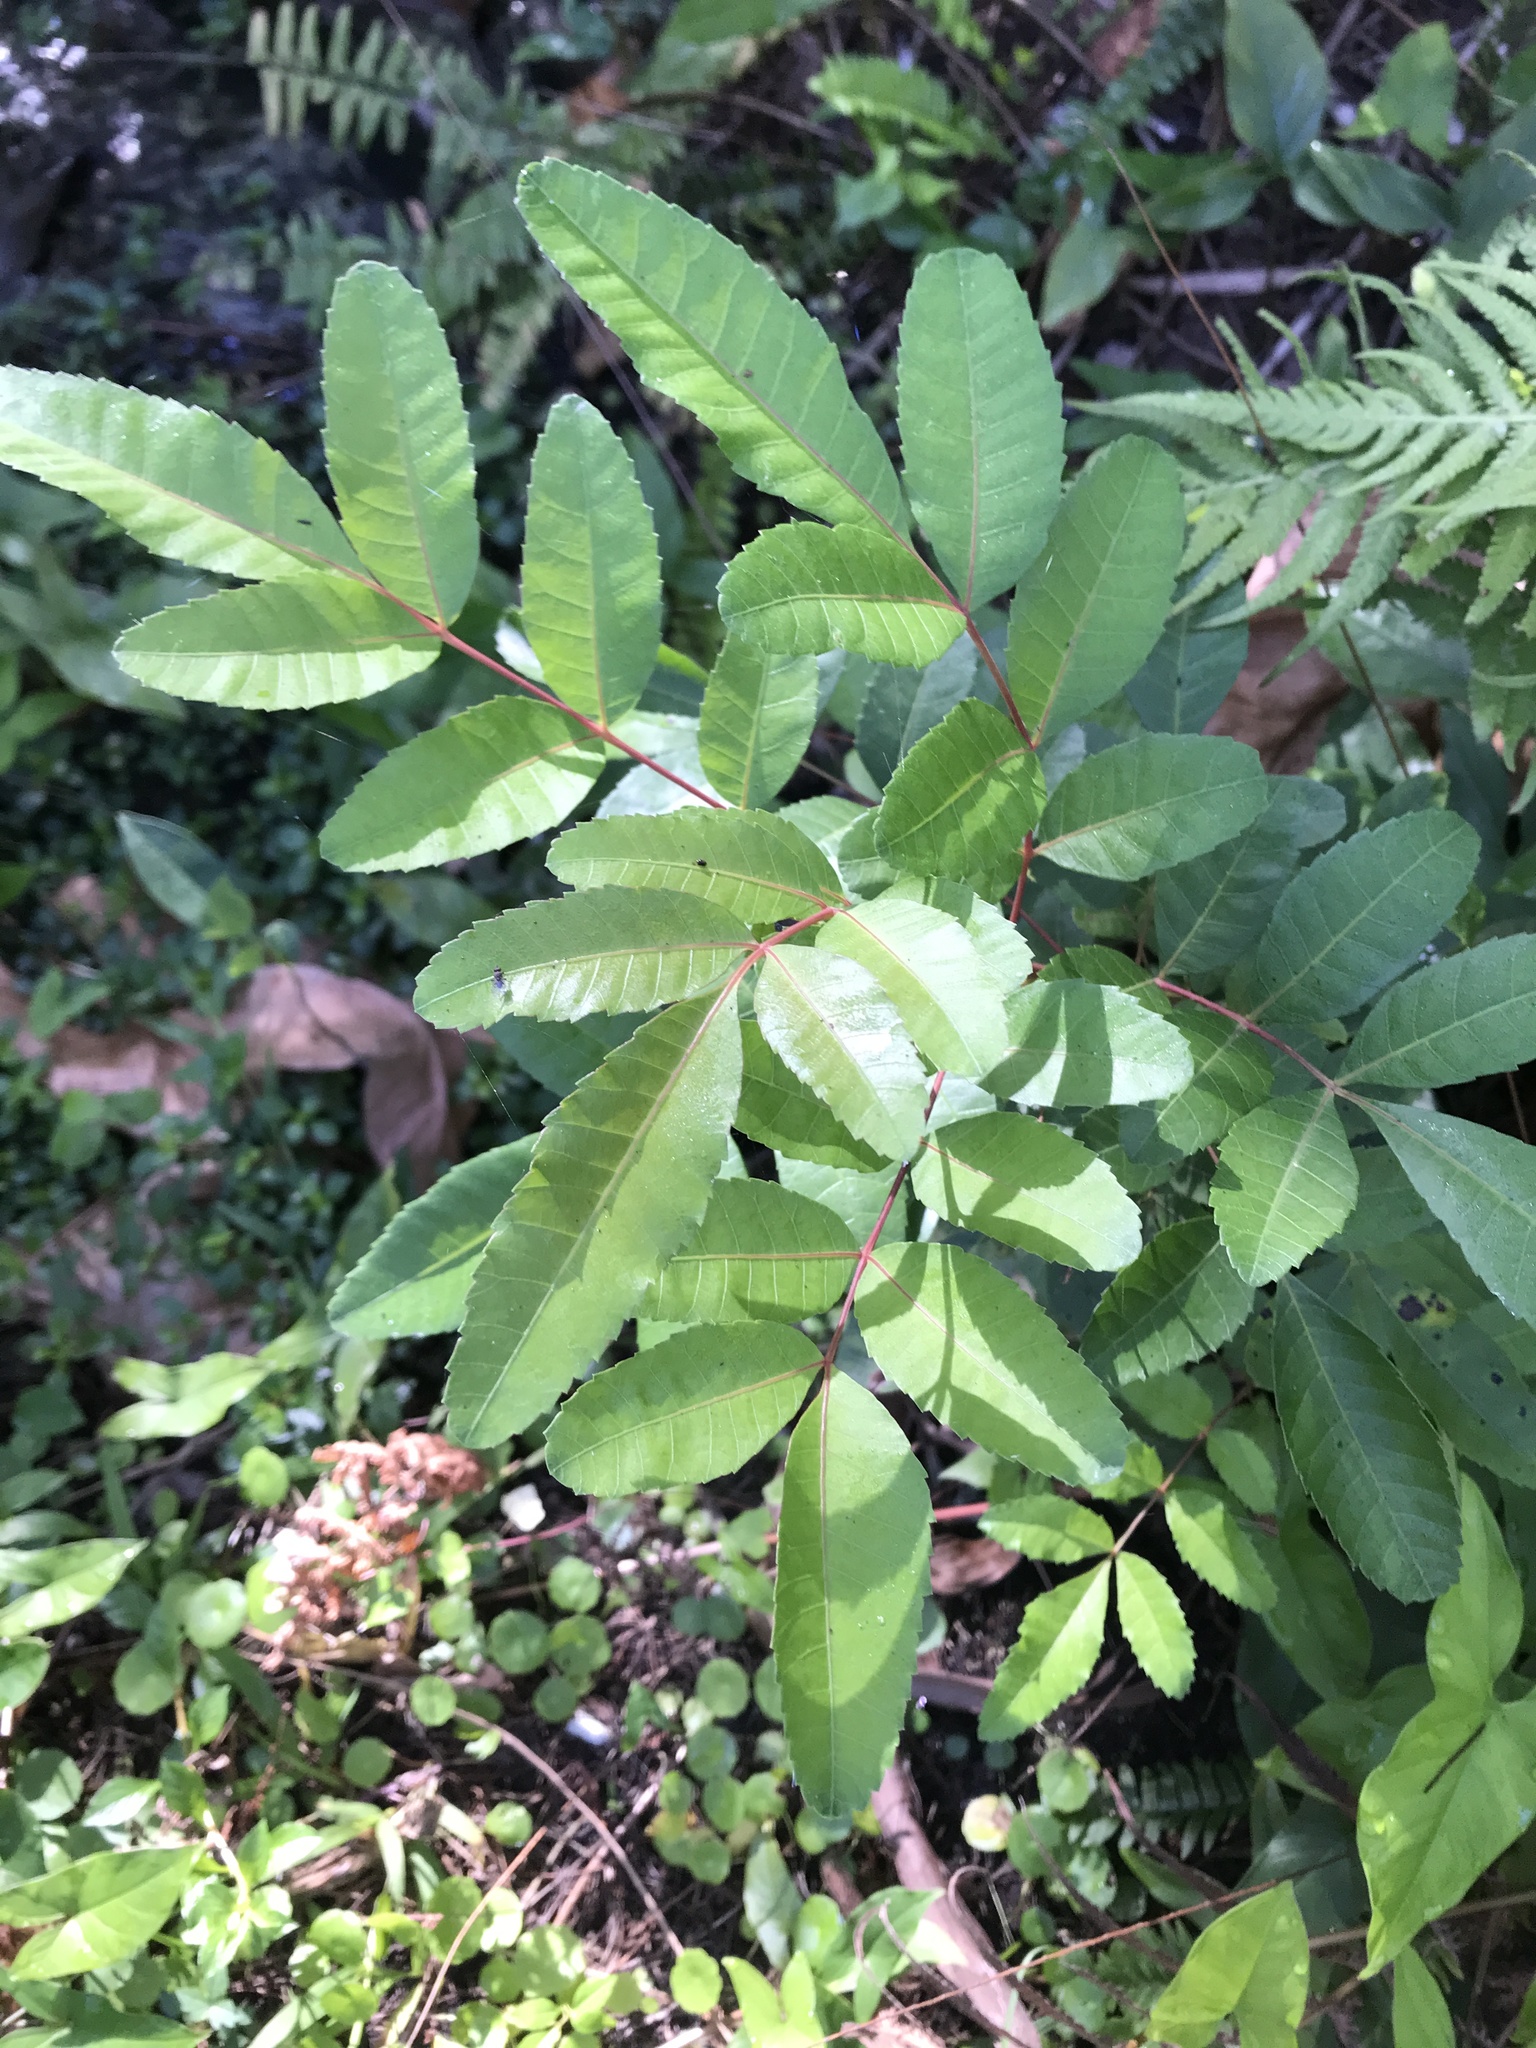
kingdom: Plantae
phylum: Tracheophyta
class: Magnoliopsida
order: Sapindales
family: Anacardiaceae
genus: Schinus
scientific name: Schinus terebinthifolia
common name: Brazilian peppertree
